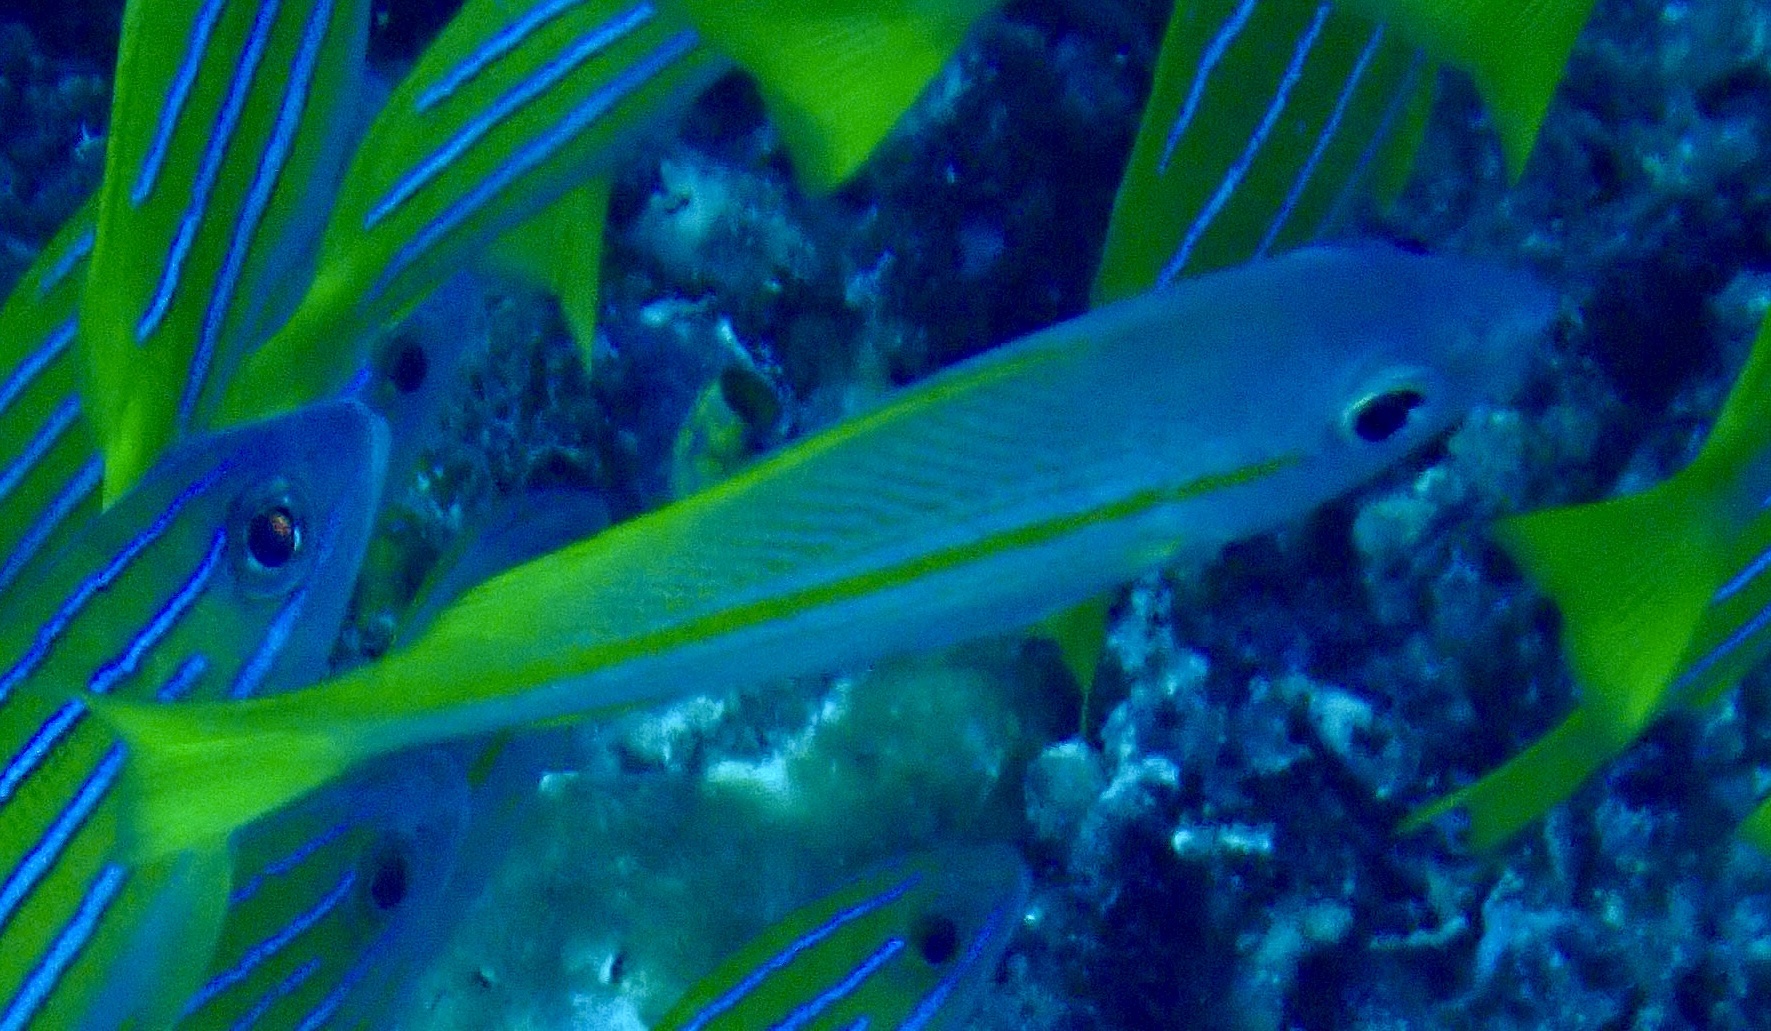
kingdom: Animalia
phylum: Chordata
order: Perciformes
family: Lutjanidae
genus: Lutjanus
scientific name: Lutjanus lutjanus
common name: Bigeye snapper
